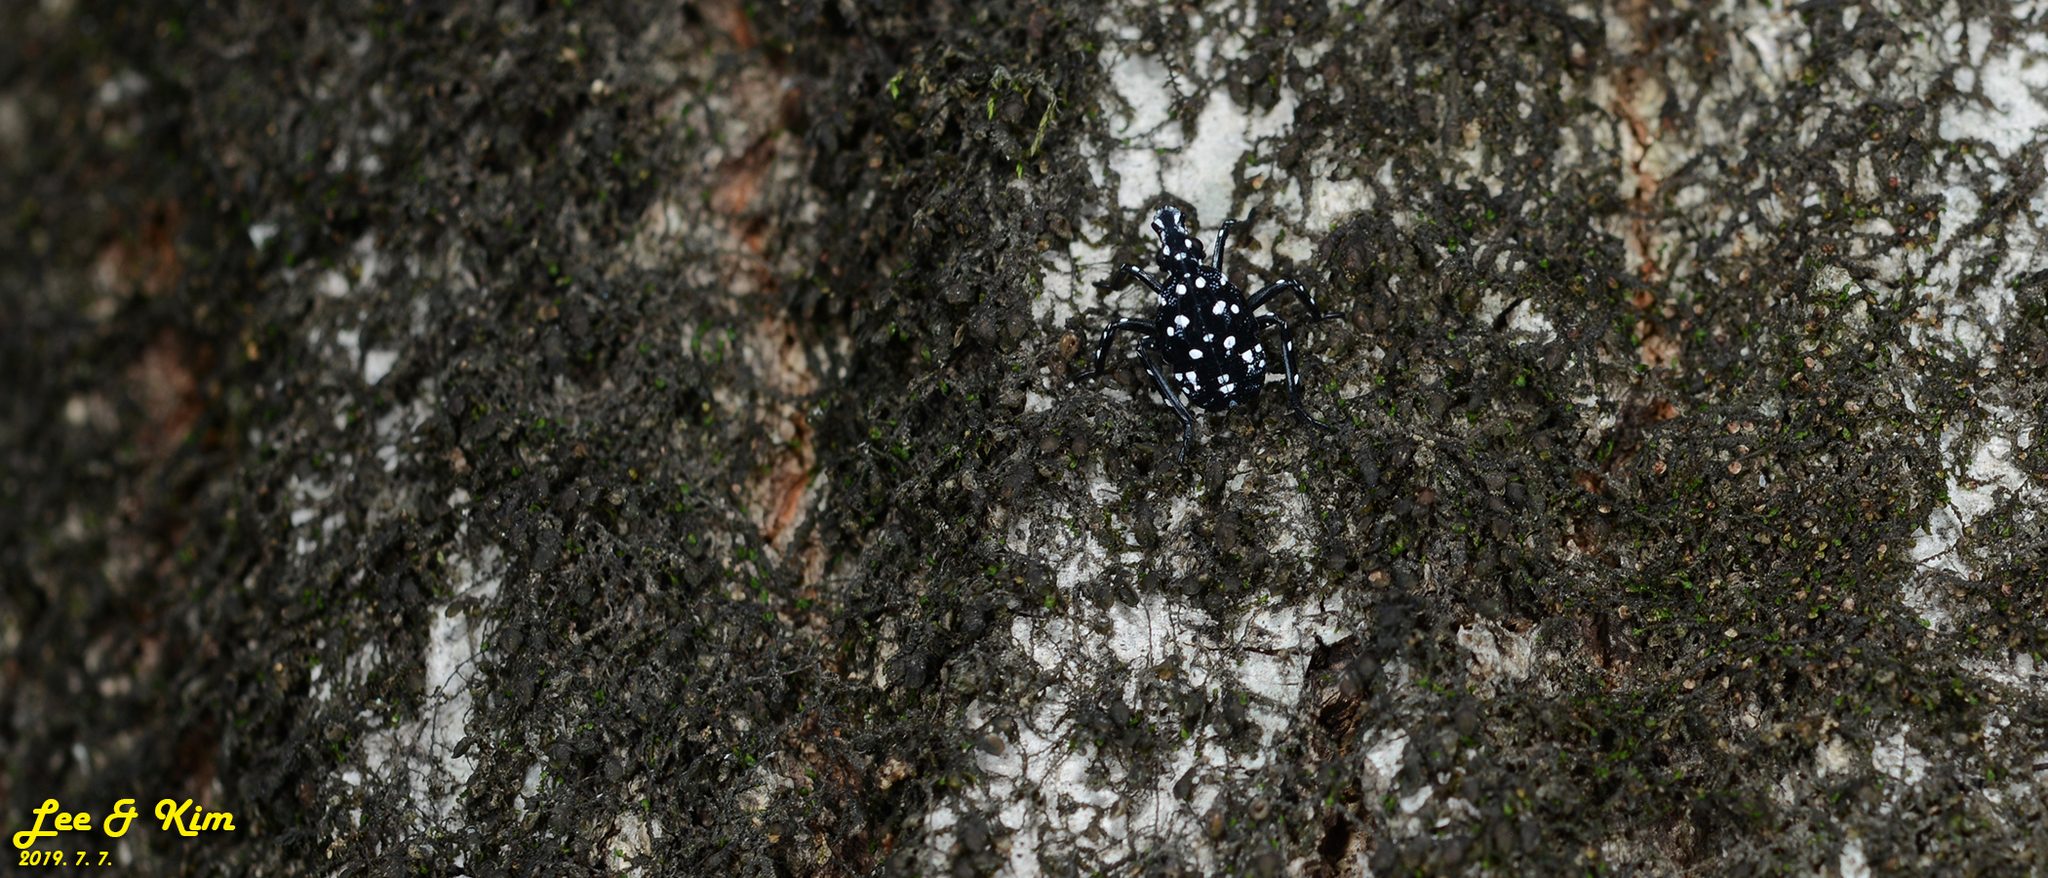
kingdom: Animalia
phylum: Arthropoda
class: Insecta
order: Hemiptera
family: Fulgoridae
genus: Lycorma
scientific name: Lycorma delicatula
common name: Spotted lanternfly
